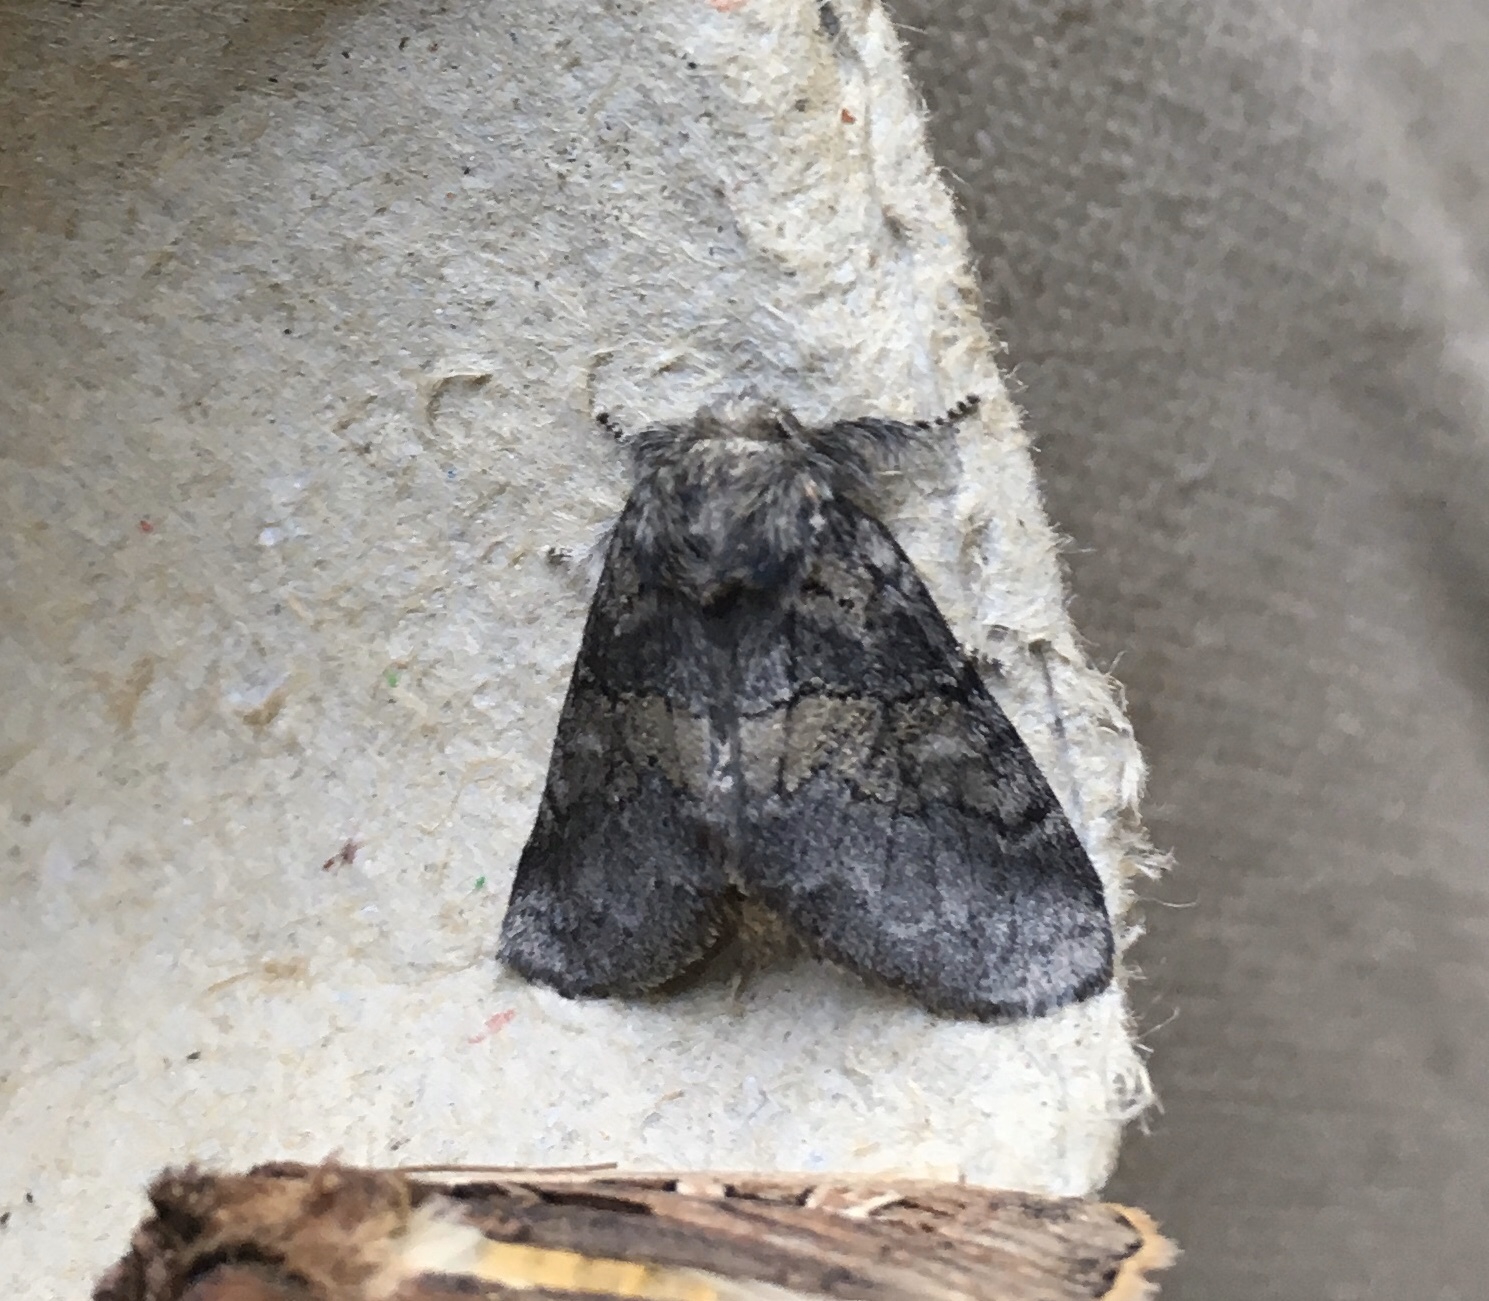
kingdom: Animalia
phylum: Arthropoda
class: Insecta
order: Lepidoptera
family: Notodontidae
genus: Gluphisia
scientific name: Gluphisia septentrionis
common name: Common gluphisia
